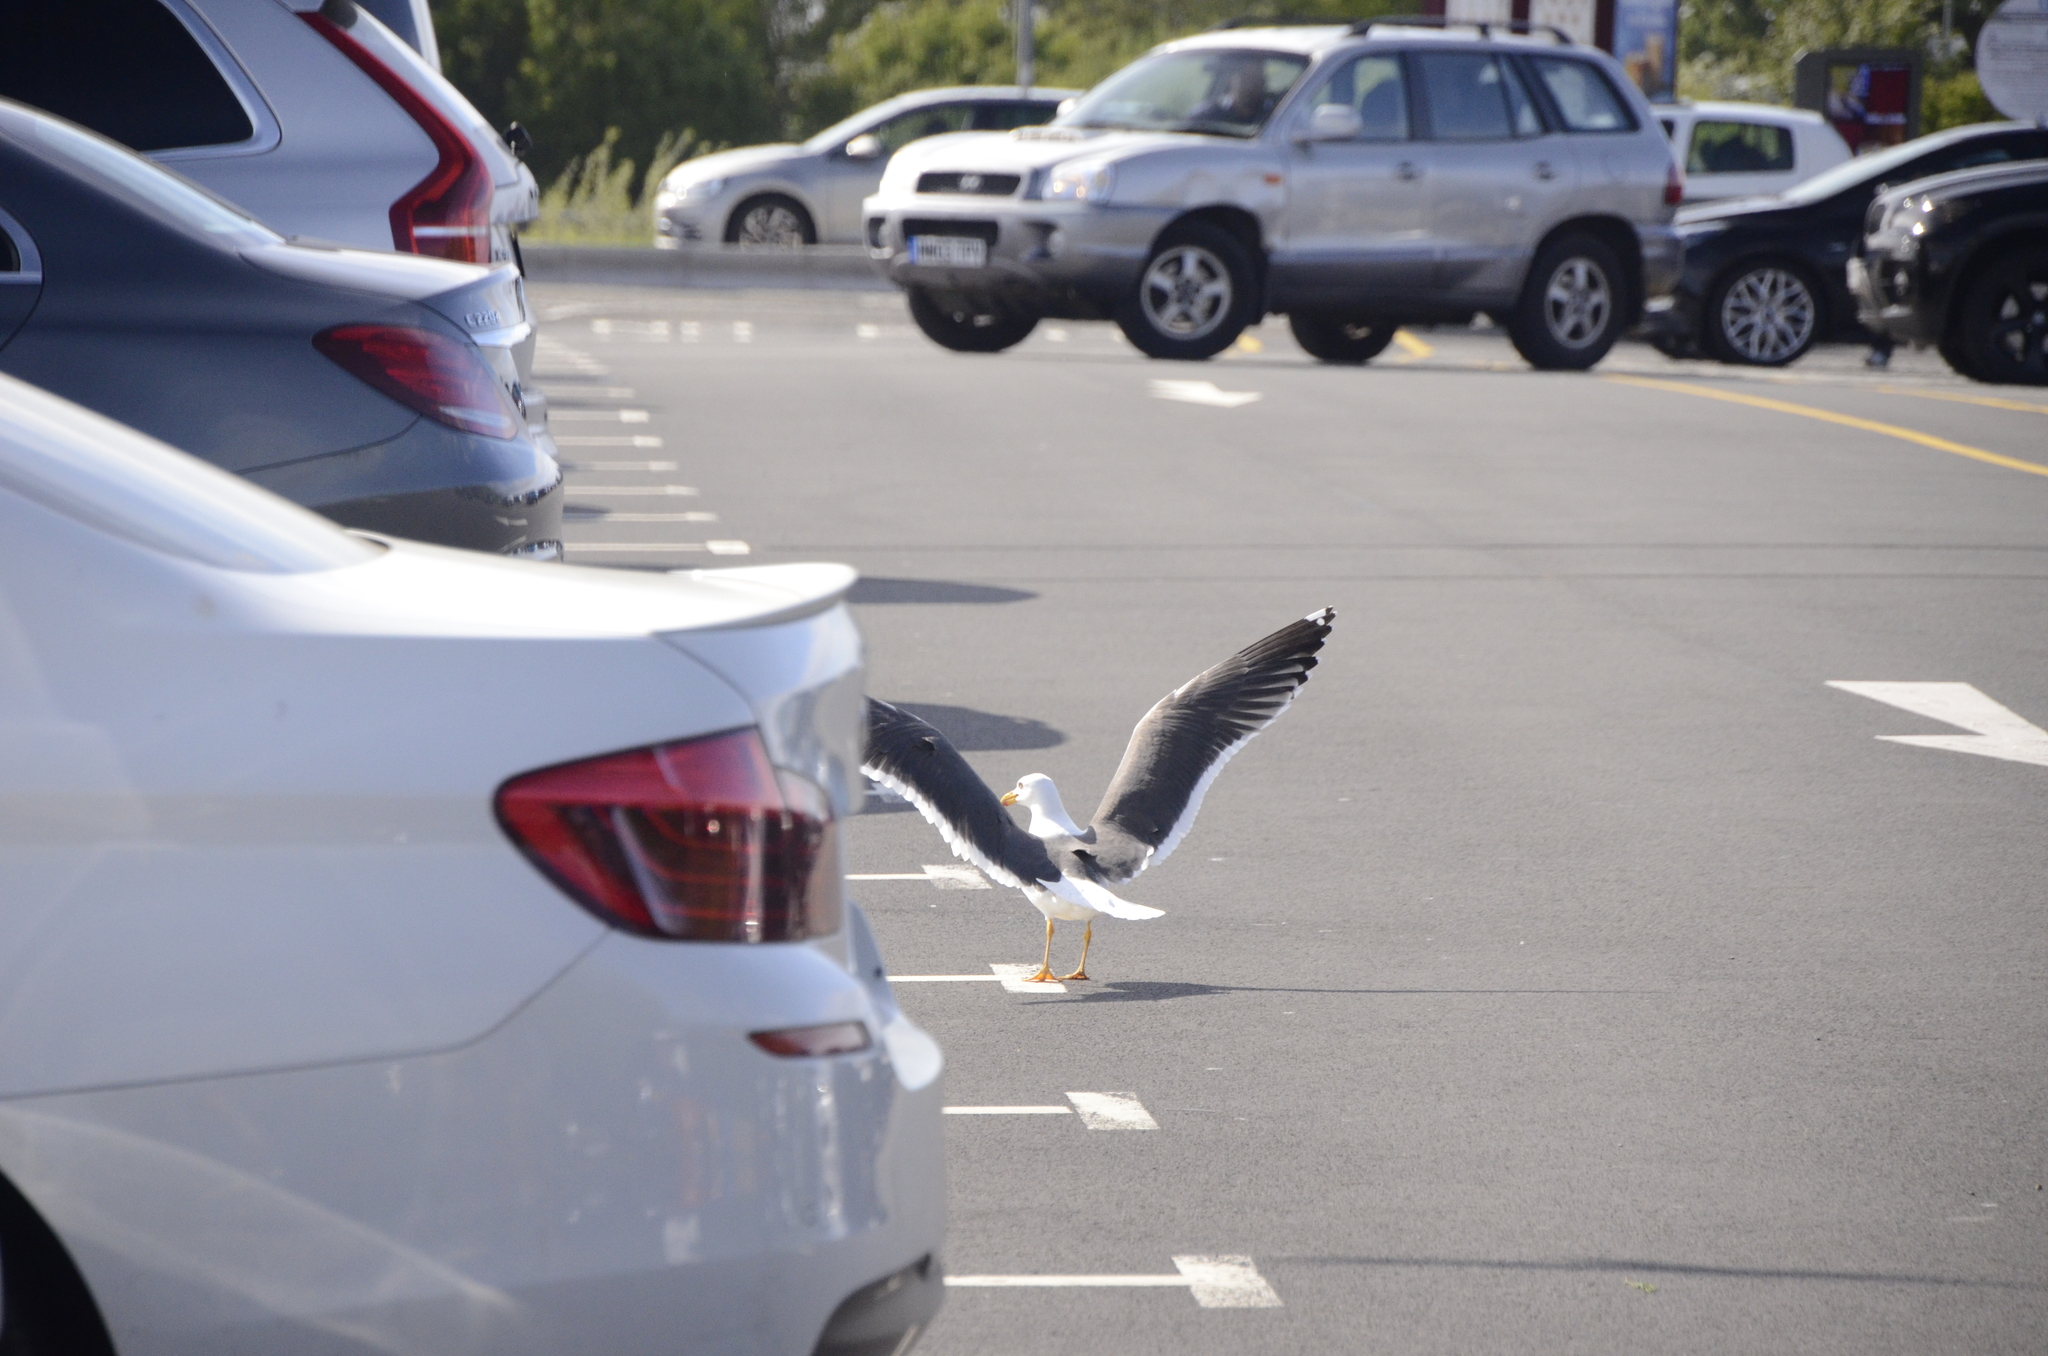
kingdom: Animalia
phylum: Chordata
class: Aves
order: Charadriiformes
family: Laridae
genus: Larus
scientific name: Larus fuscus
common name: Lesser black-backed gull
